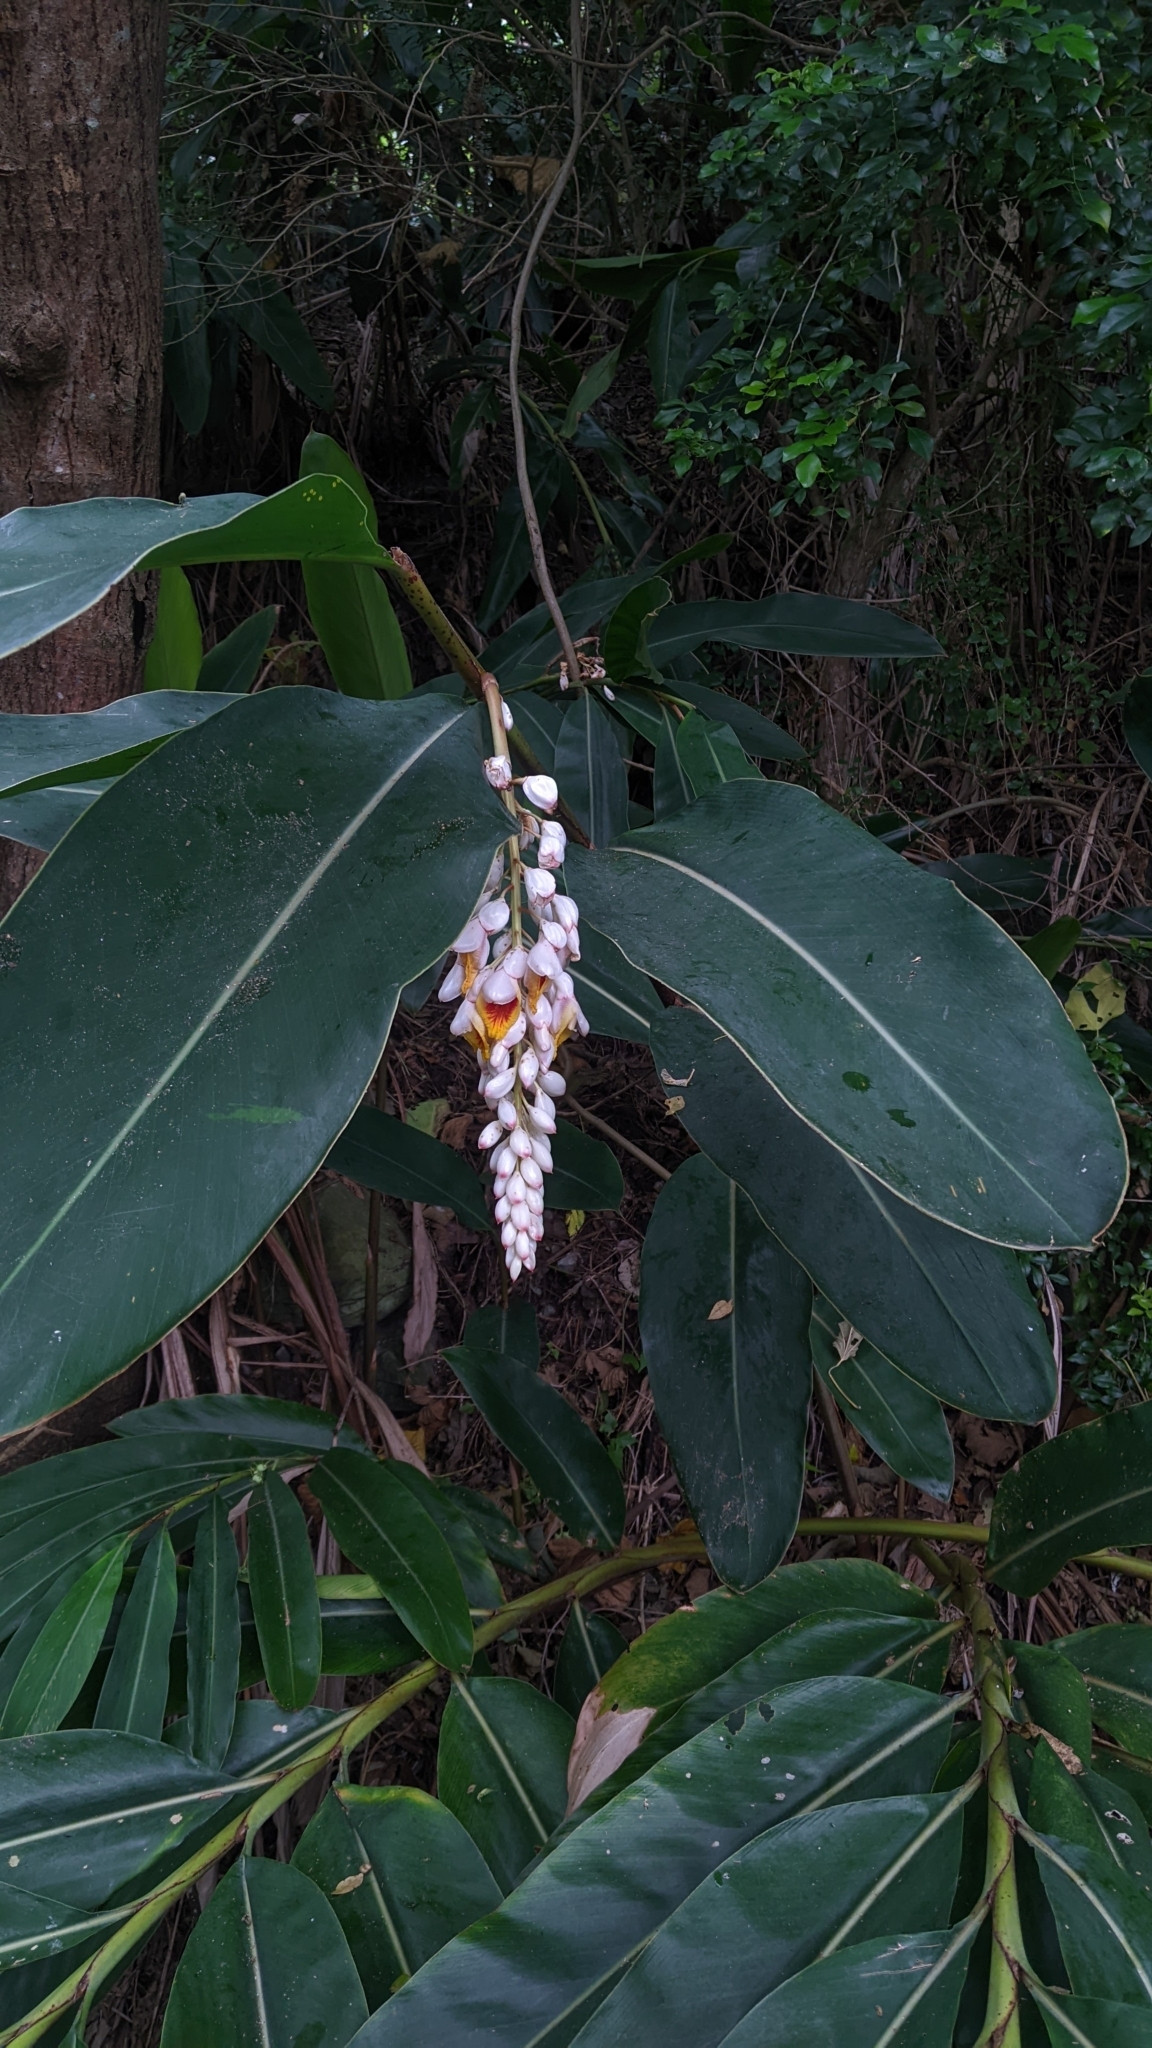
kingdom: Plantae
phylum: Tracheophyta
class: Liliopsida
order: Zingiberales
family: Zingiberaceae
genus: Alpinia
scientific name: Alpinia zerumbet
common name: Shellplant
